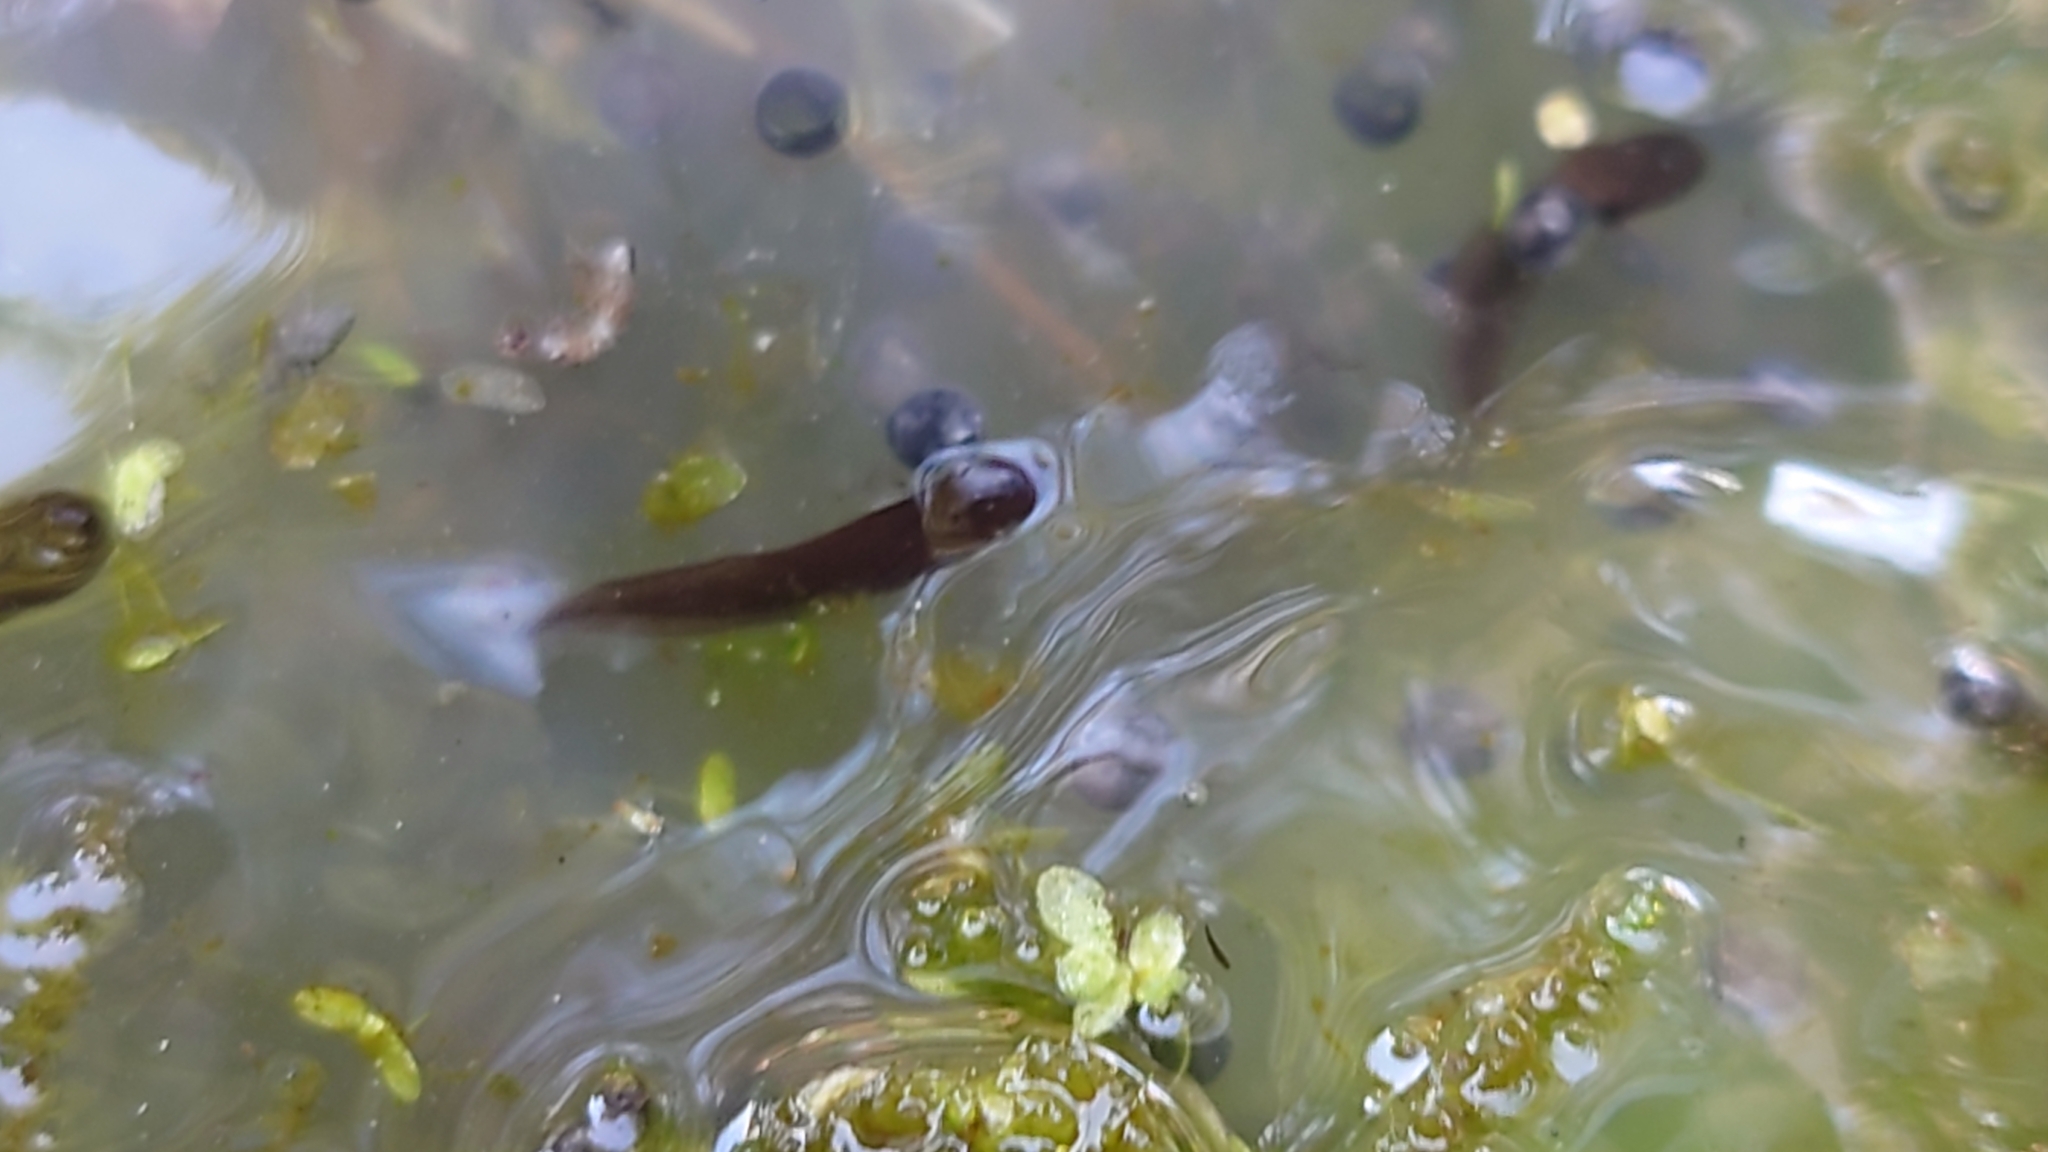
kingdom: Animalia
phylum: Chordata
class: Amphibia
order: Anura
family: Ranidae
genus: Rana
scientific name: Rana temporaria
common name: Common frog
